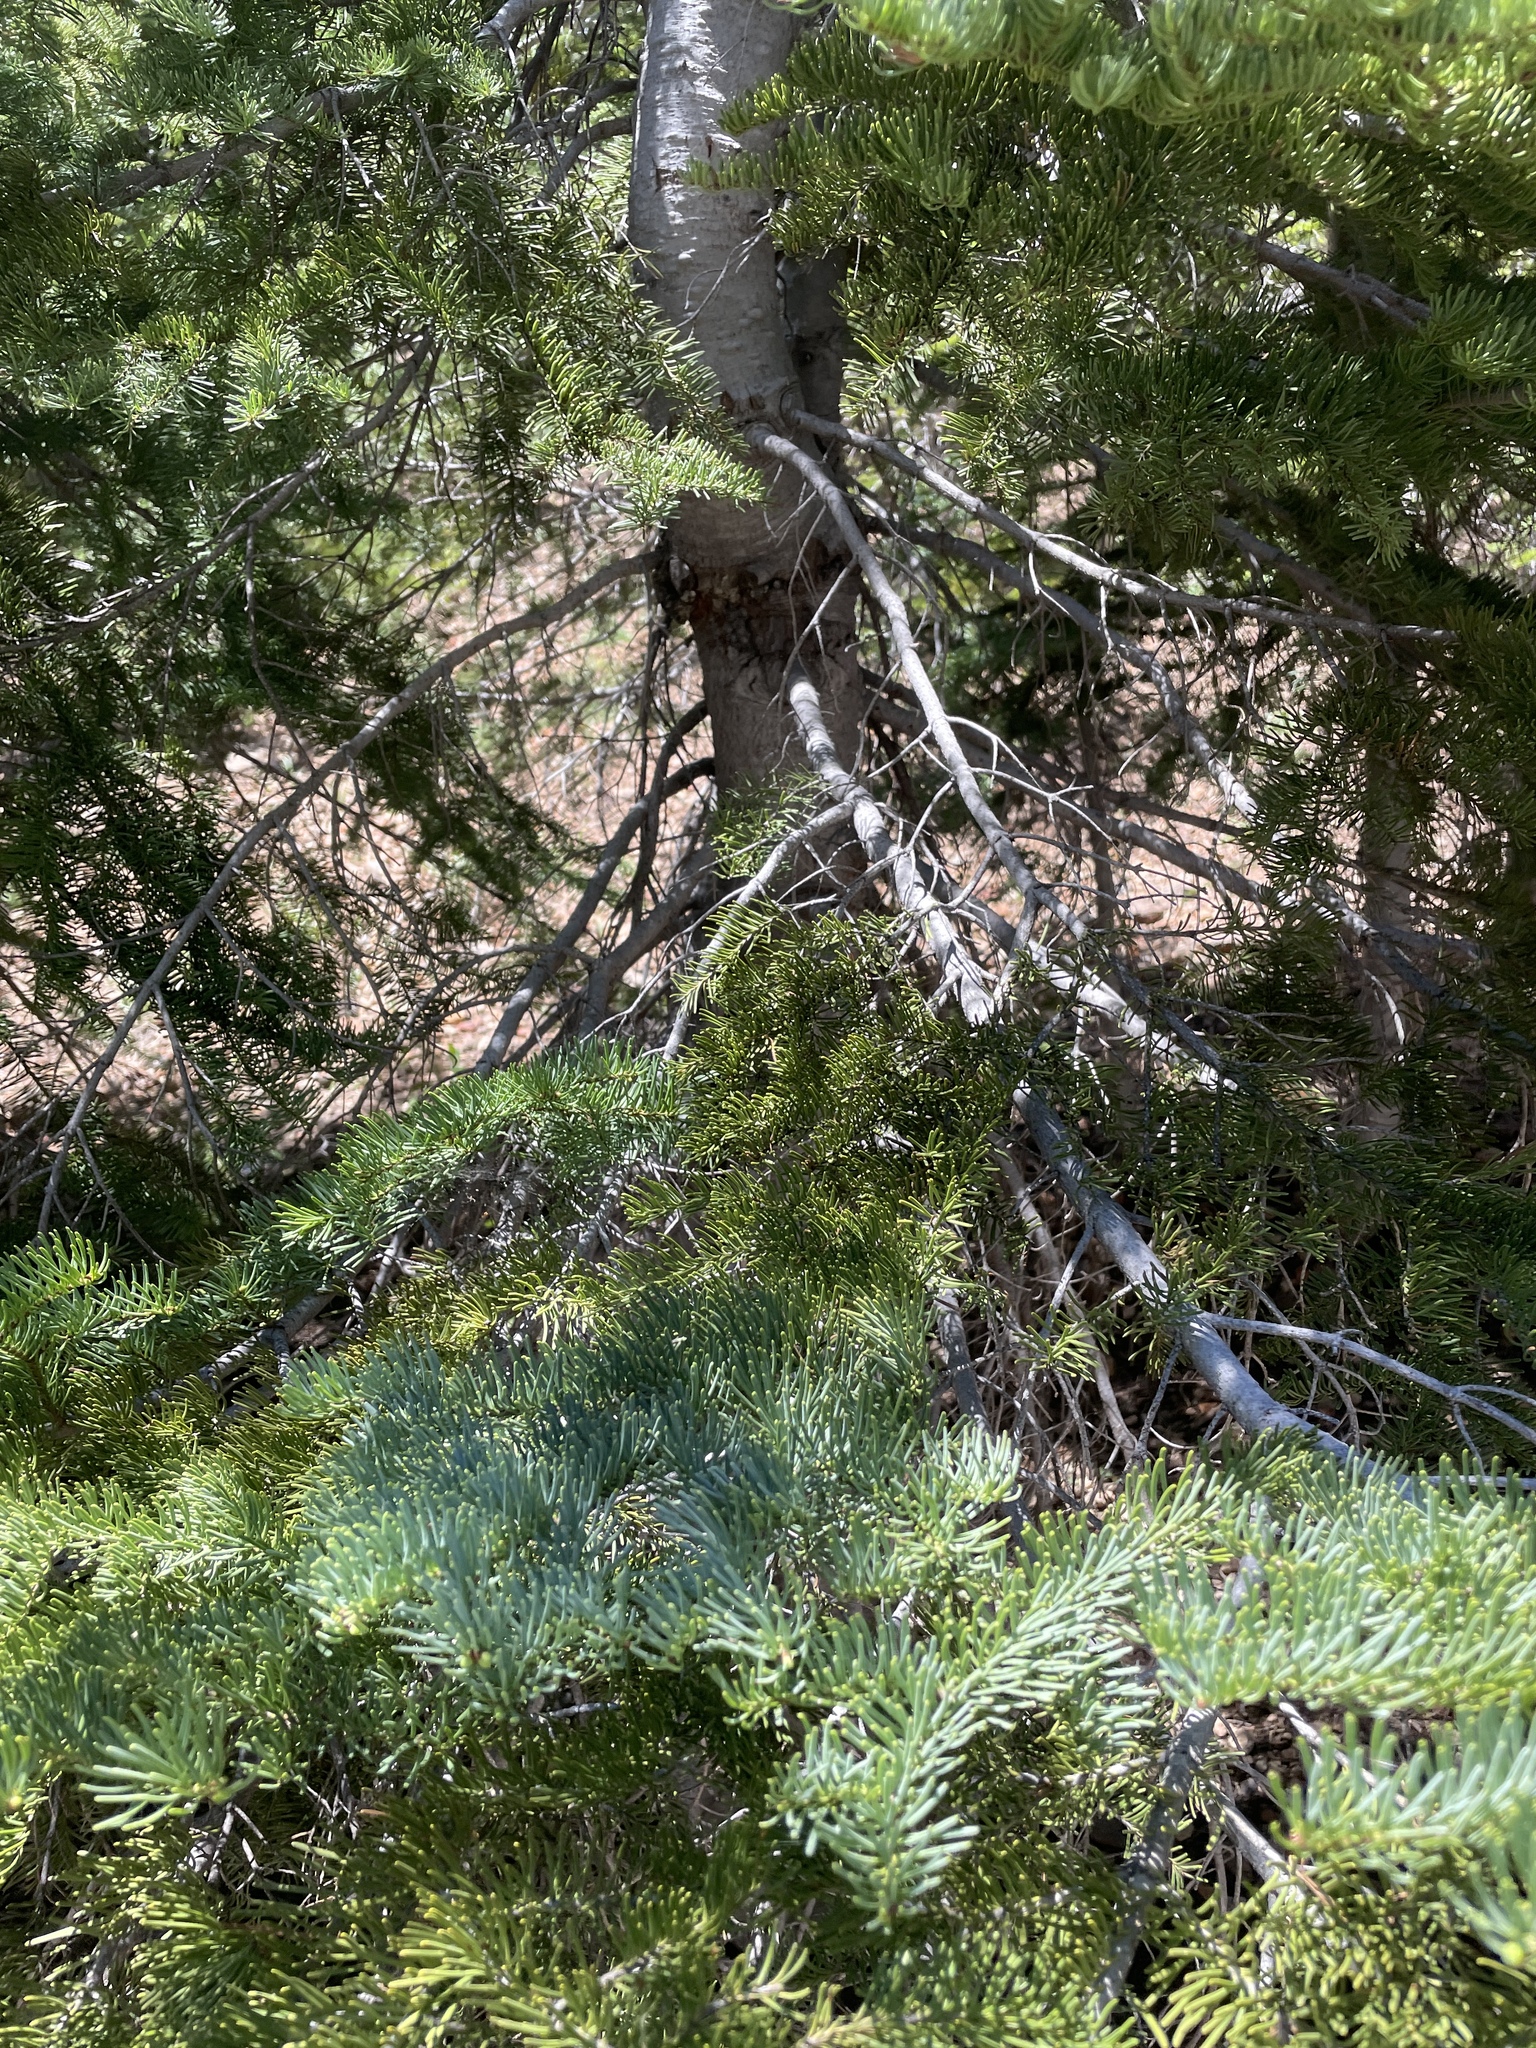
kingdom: Plantae
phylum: Tracheophyta
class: Pinopsida
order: Pinales
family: Pinaceae
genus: Abies
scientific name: Abies magnifica bis
